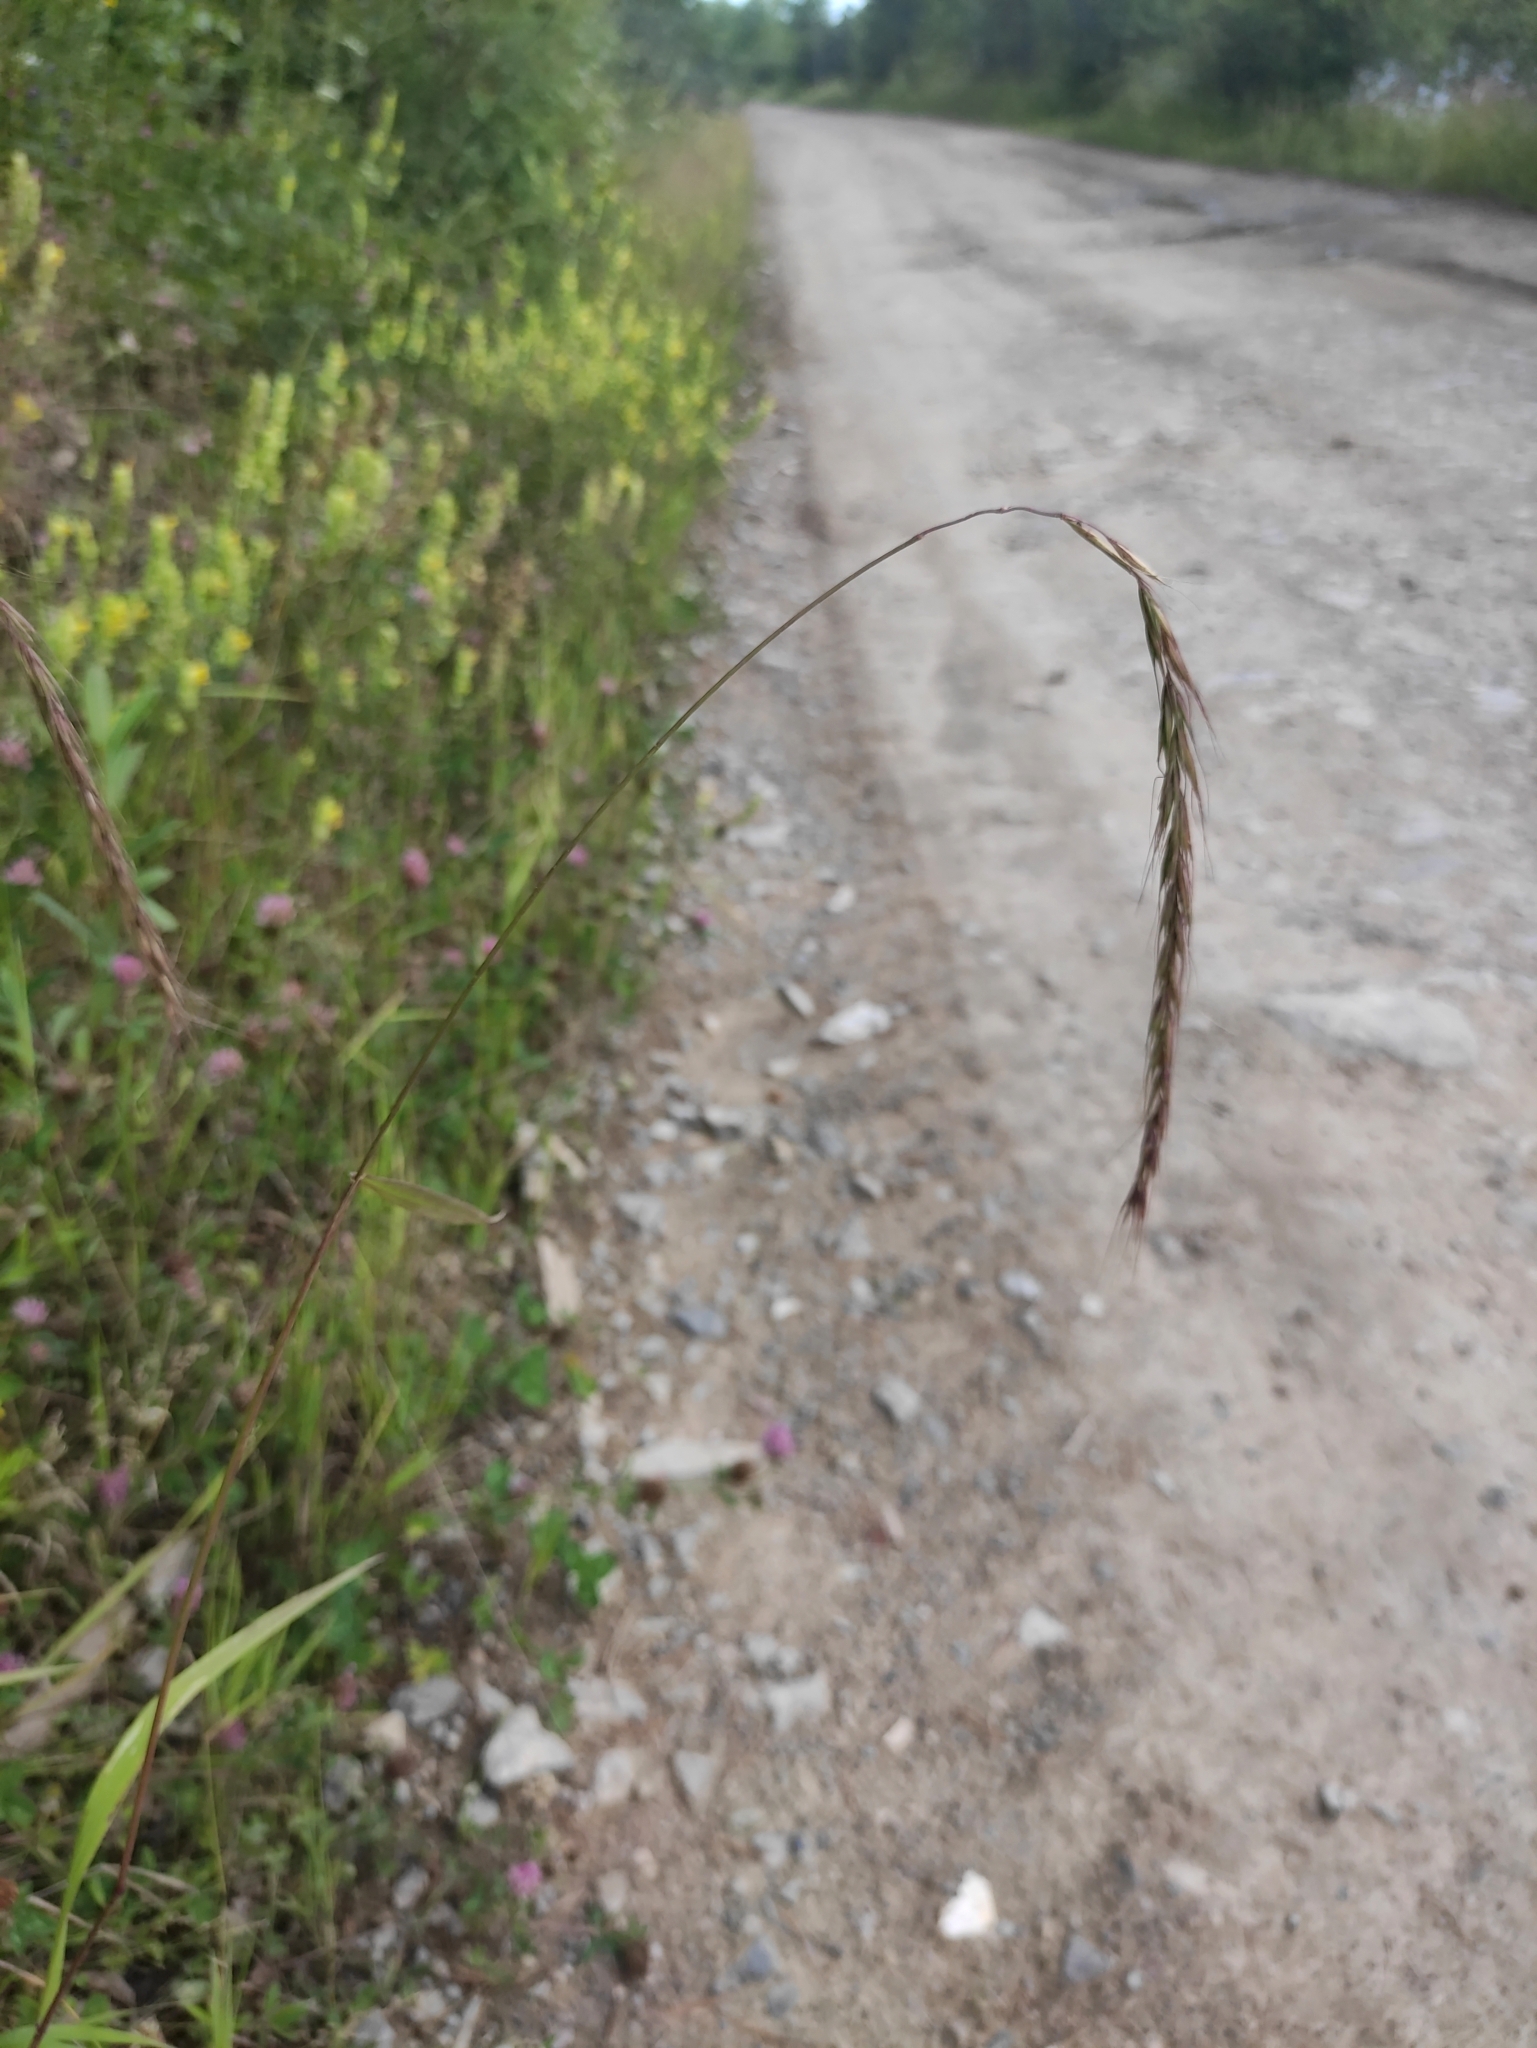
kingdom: Plantae
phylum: Tracheophyta
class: Liliopsida
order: Poales
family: Poaceae
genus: Elymus
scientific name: Elymus sibiricus
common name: Siberian wildrye
